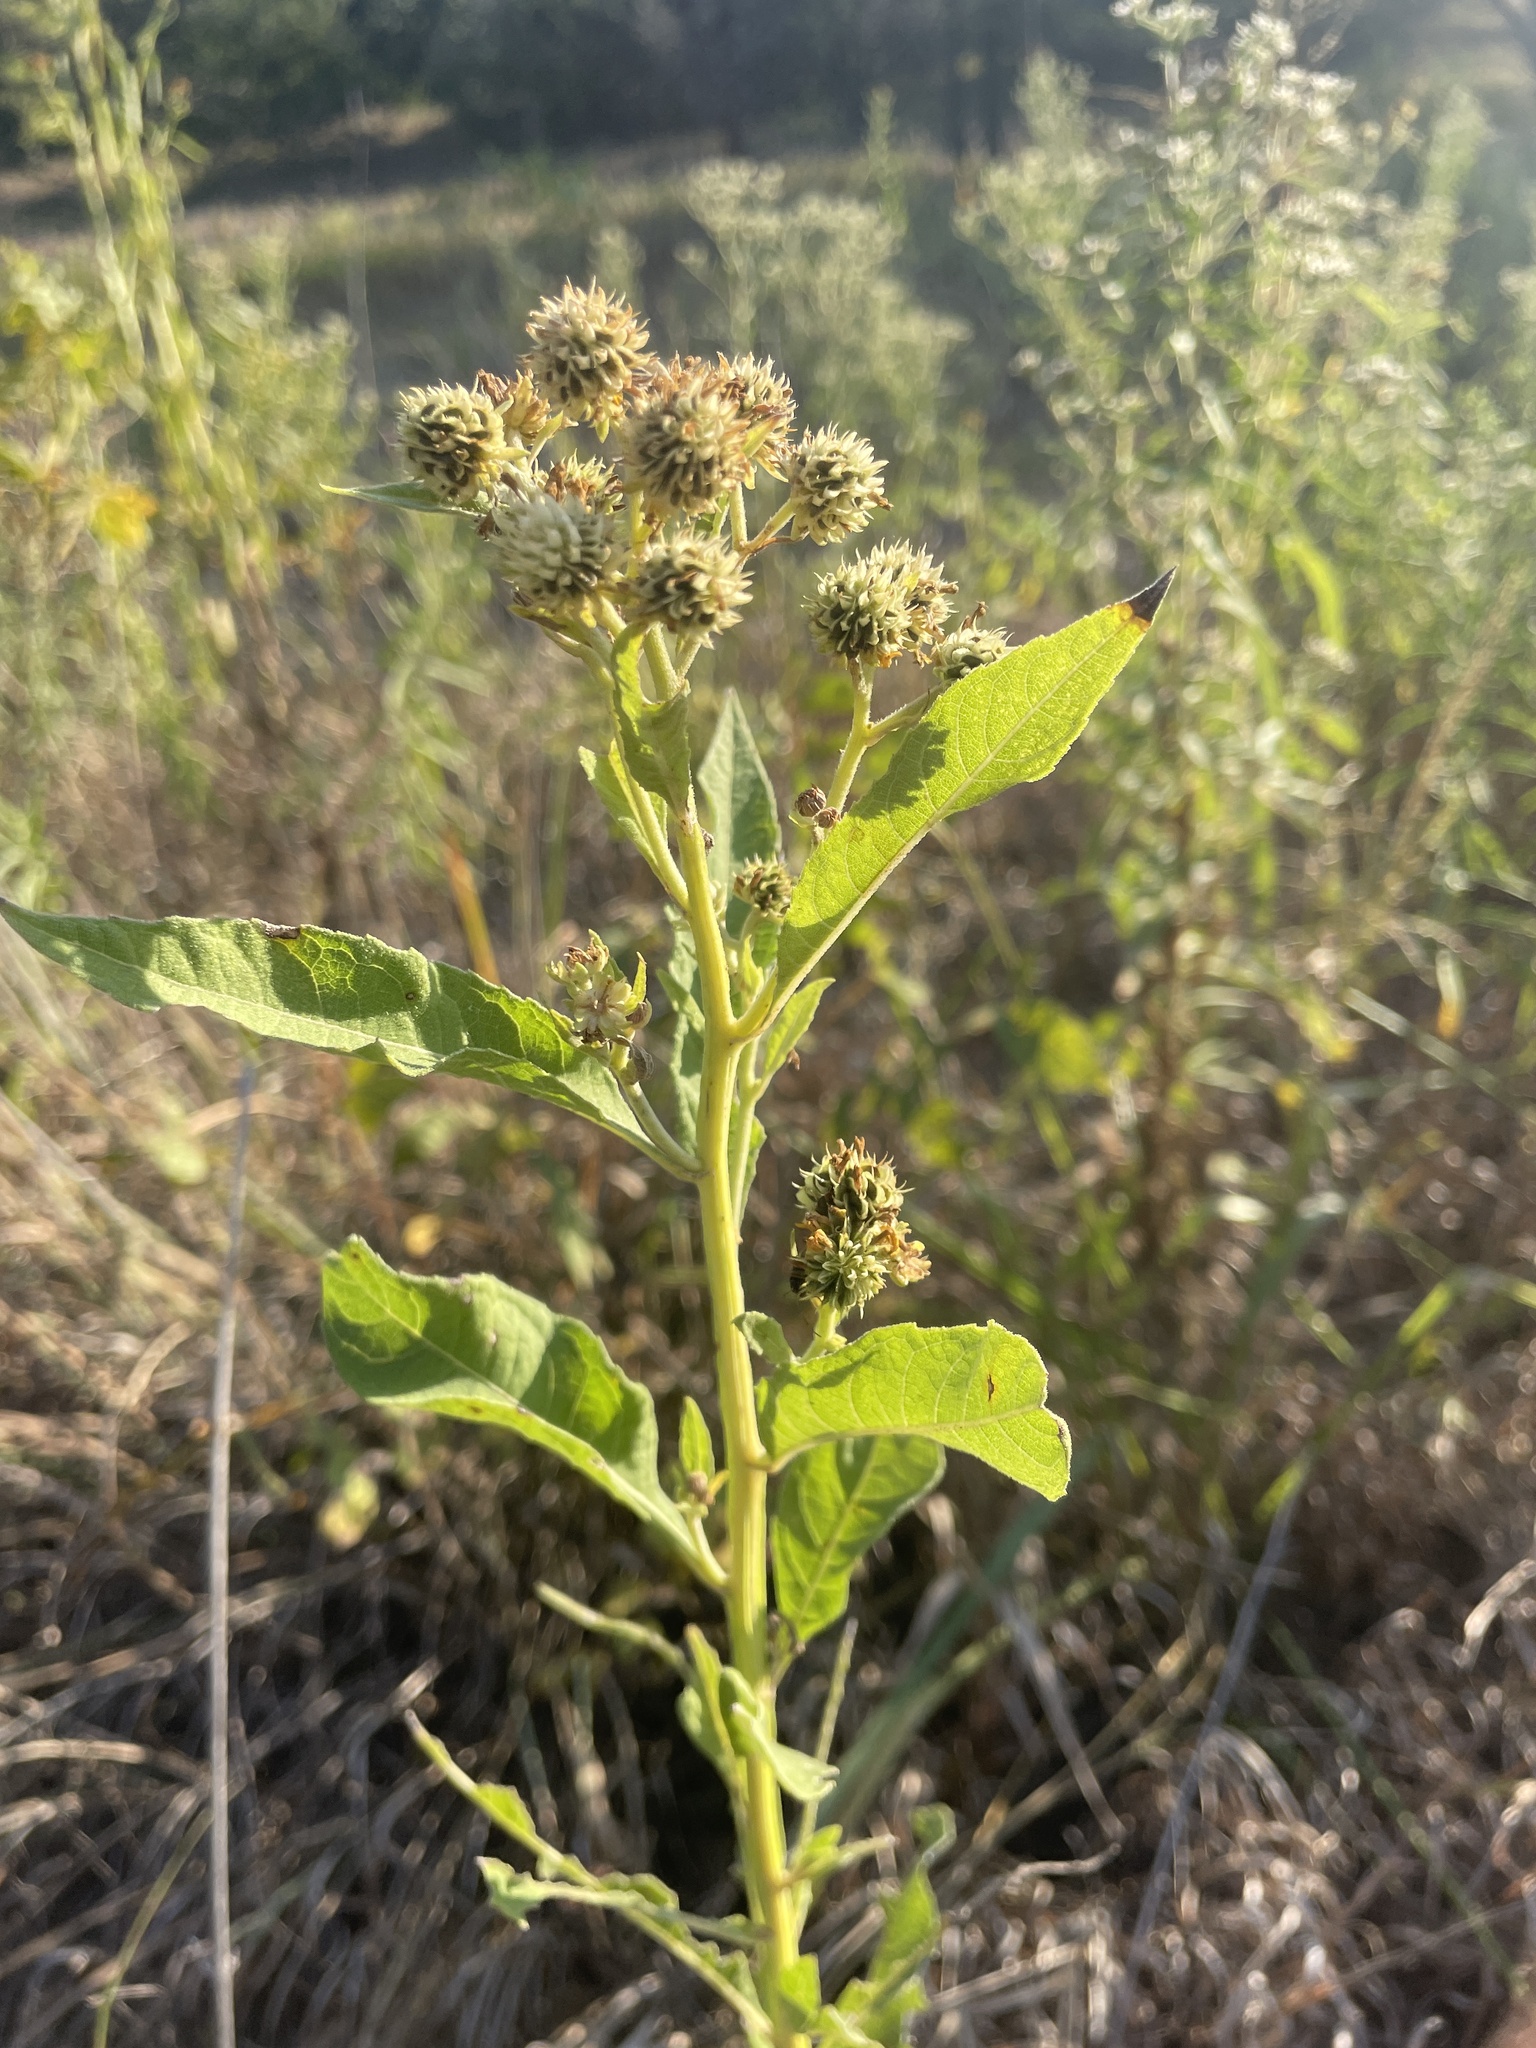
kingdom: Plantae
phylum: Tracheophyta
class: Magnoliopsida
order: Asterales
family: Asteraceae
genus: Verbesina
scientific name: Verbesina alternifolia
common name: Wingstem
